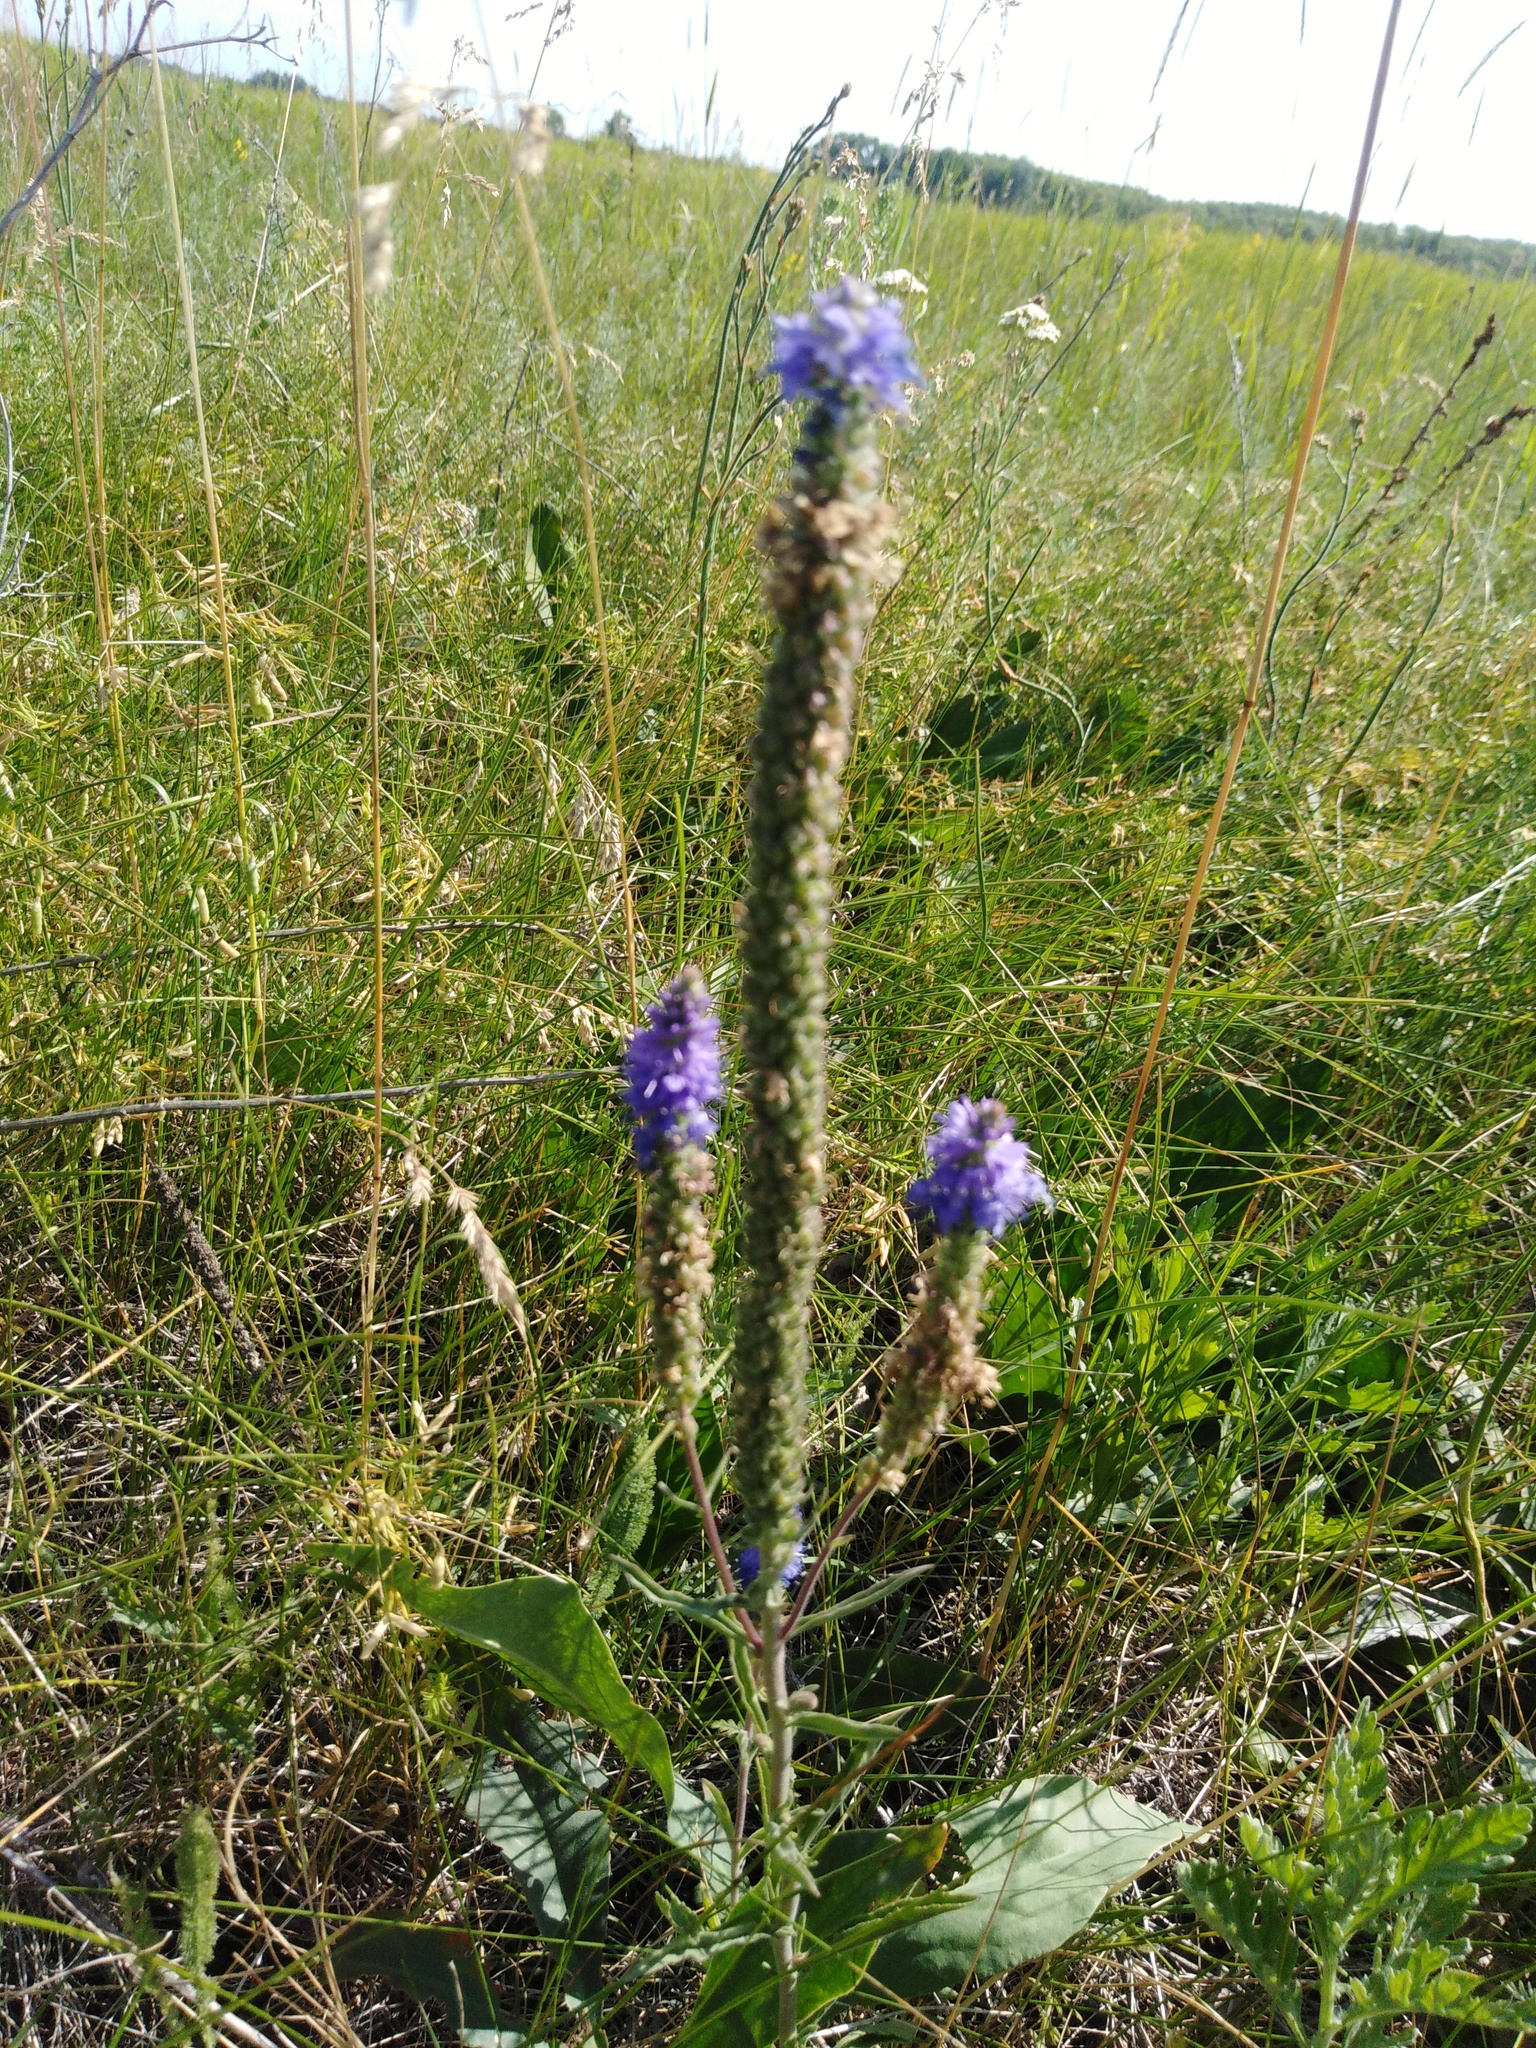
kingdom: Plantae
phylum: Tracheophyta
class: Magnoliopsida
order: Lamiales
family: Plantaginaceae
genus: Veronica
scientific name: Veronica spicata
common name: Spiked speedwell
